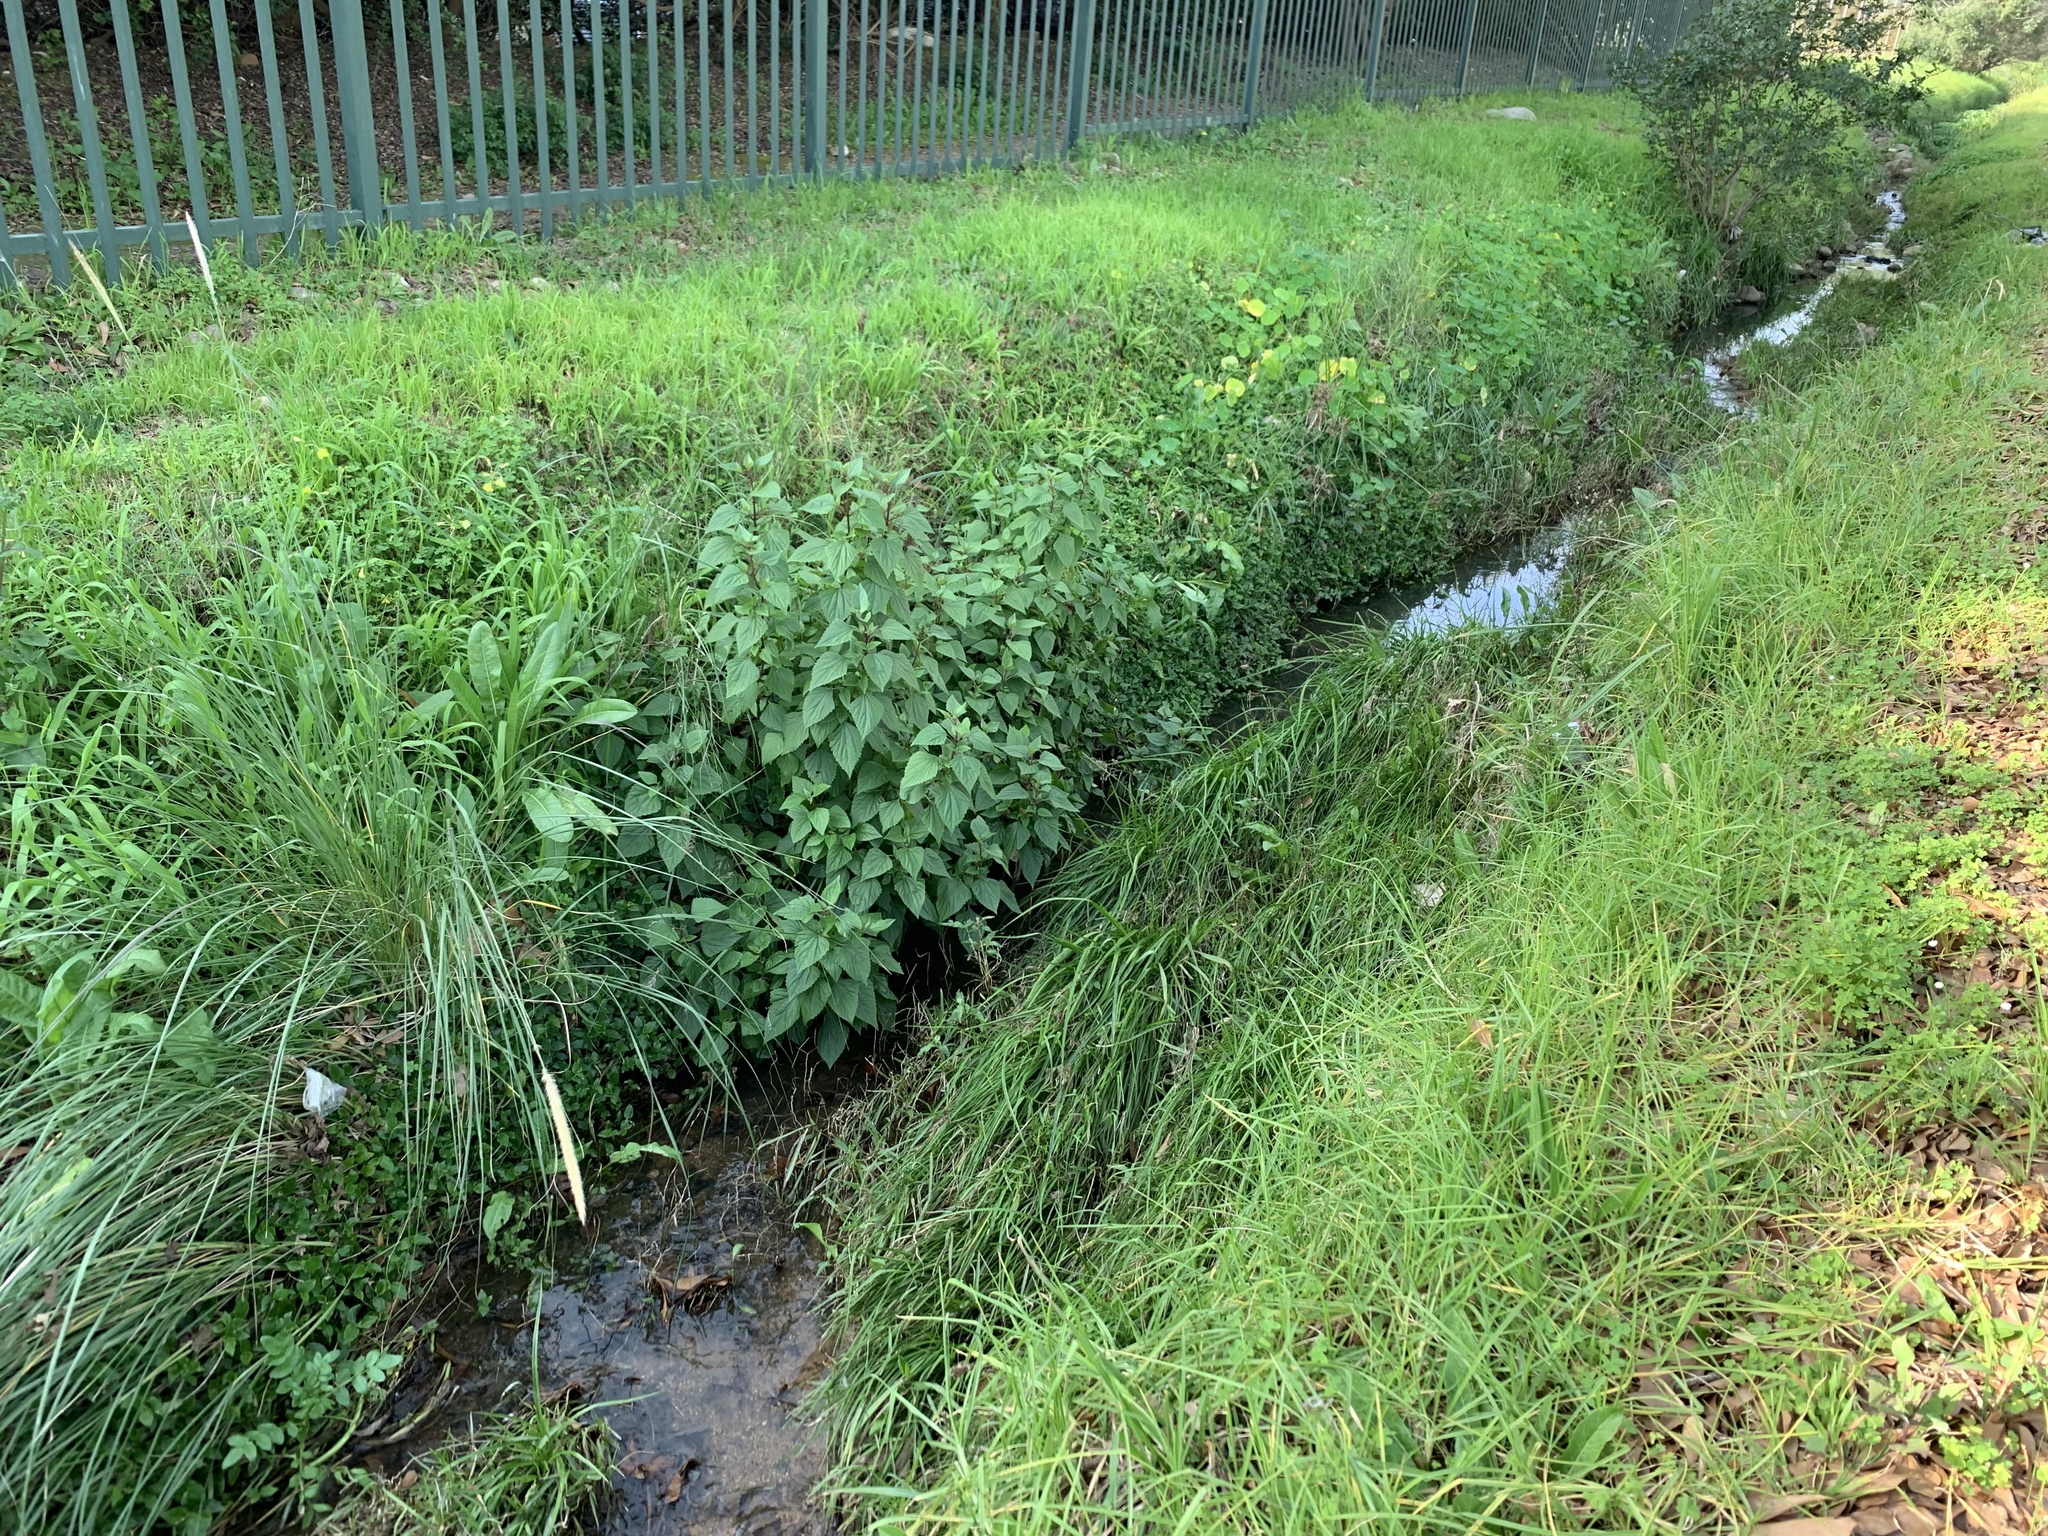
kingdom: Plantae
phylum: Tracheophyta
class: Magnoliopsida
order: Asterales
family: Asteraceae
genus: Ageratina
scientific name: Ageratina adenophora
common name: Sticky snakeroot
